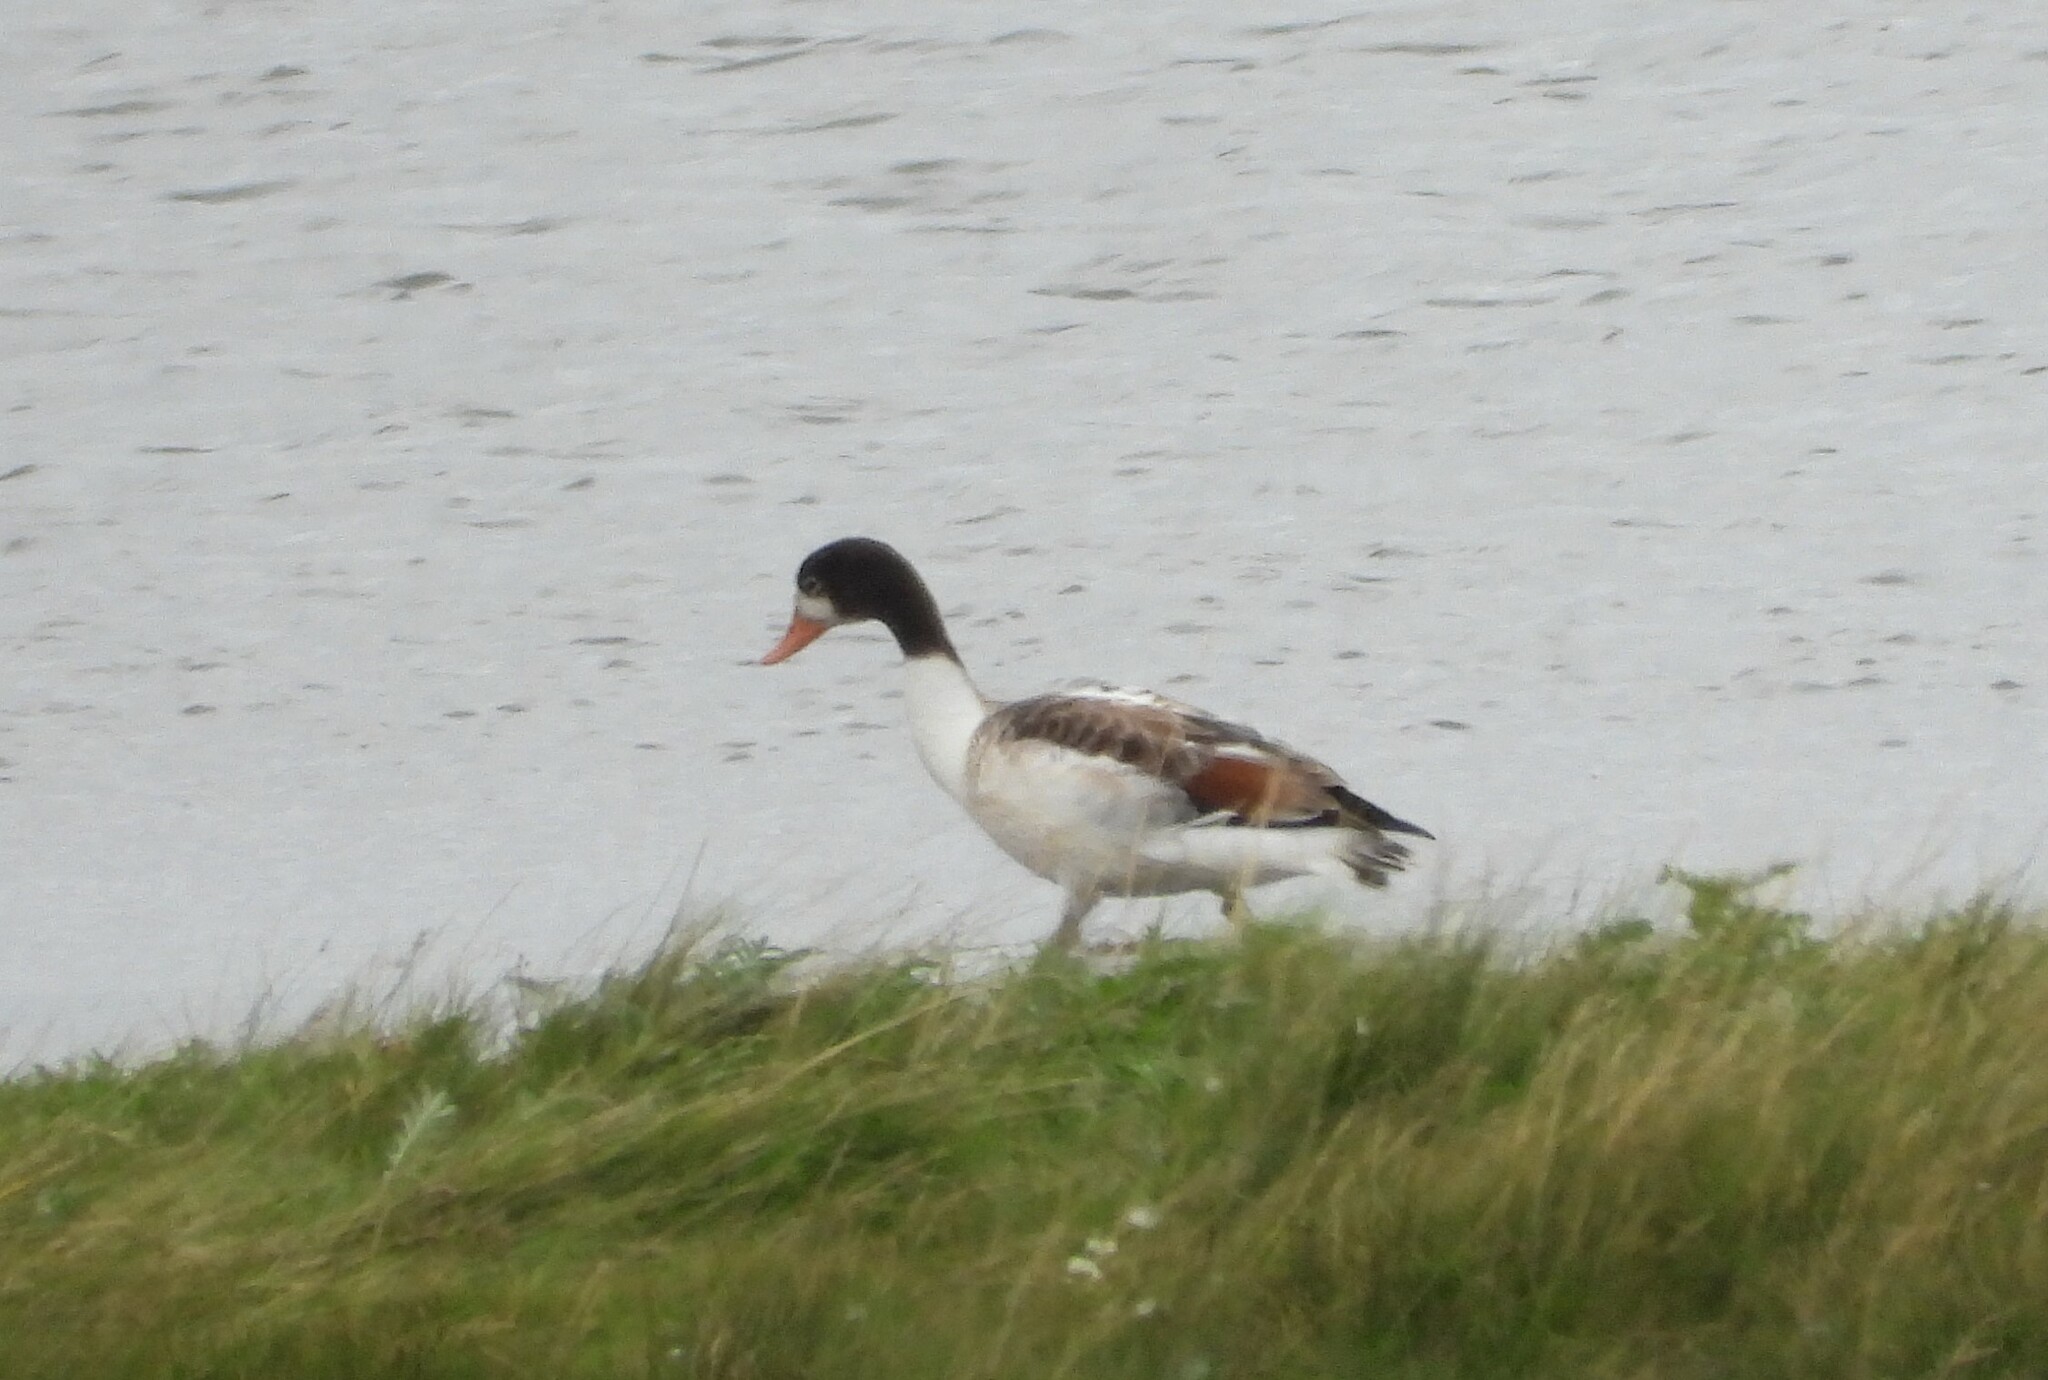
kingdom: Animalia
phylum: Chordata
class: Aves
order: Anseriformes
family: Anatidae
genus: Tadorna
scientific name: Tadorna tadorna
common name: Common shelduck
